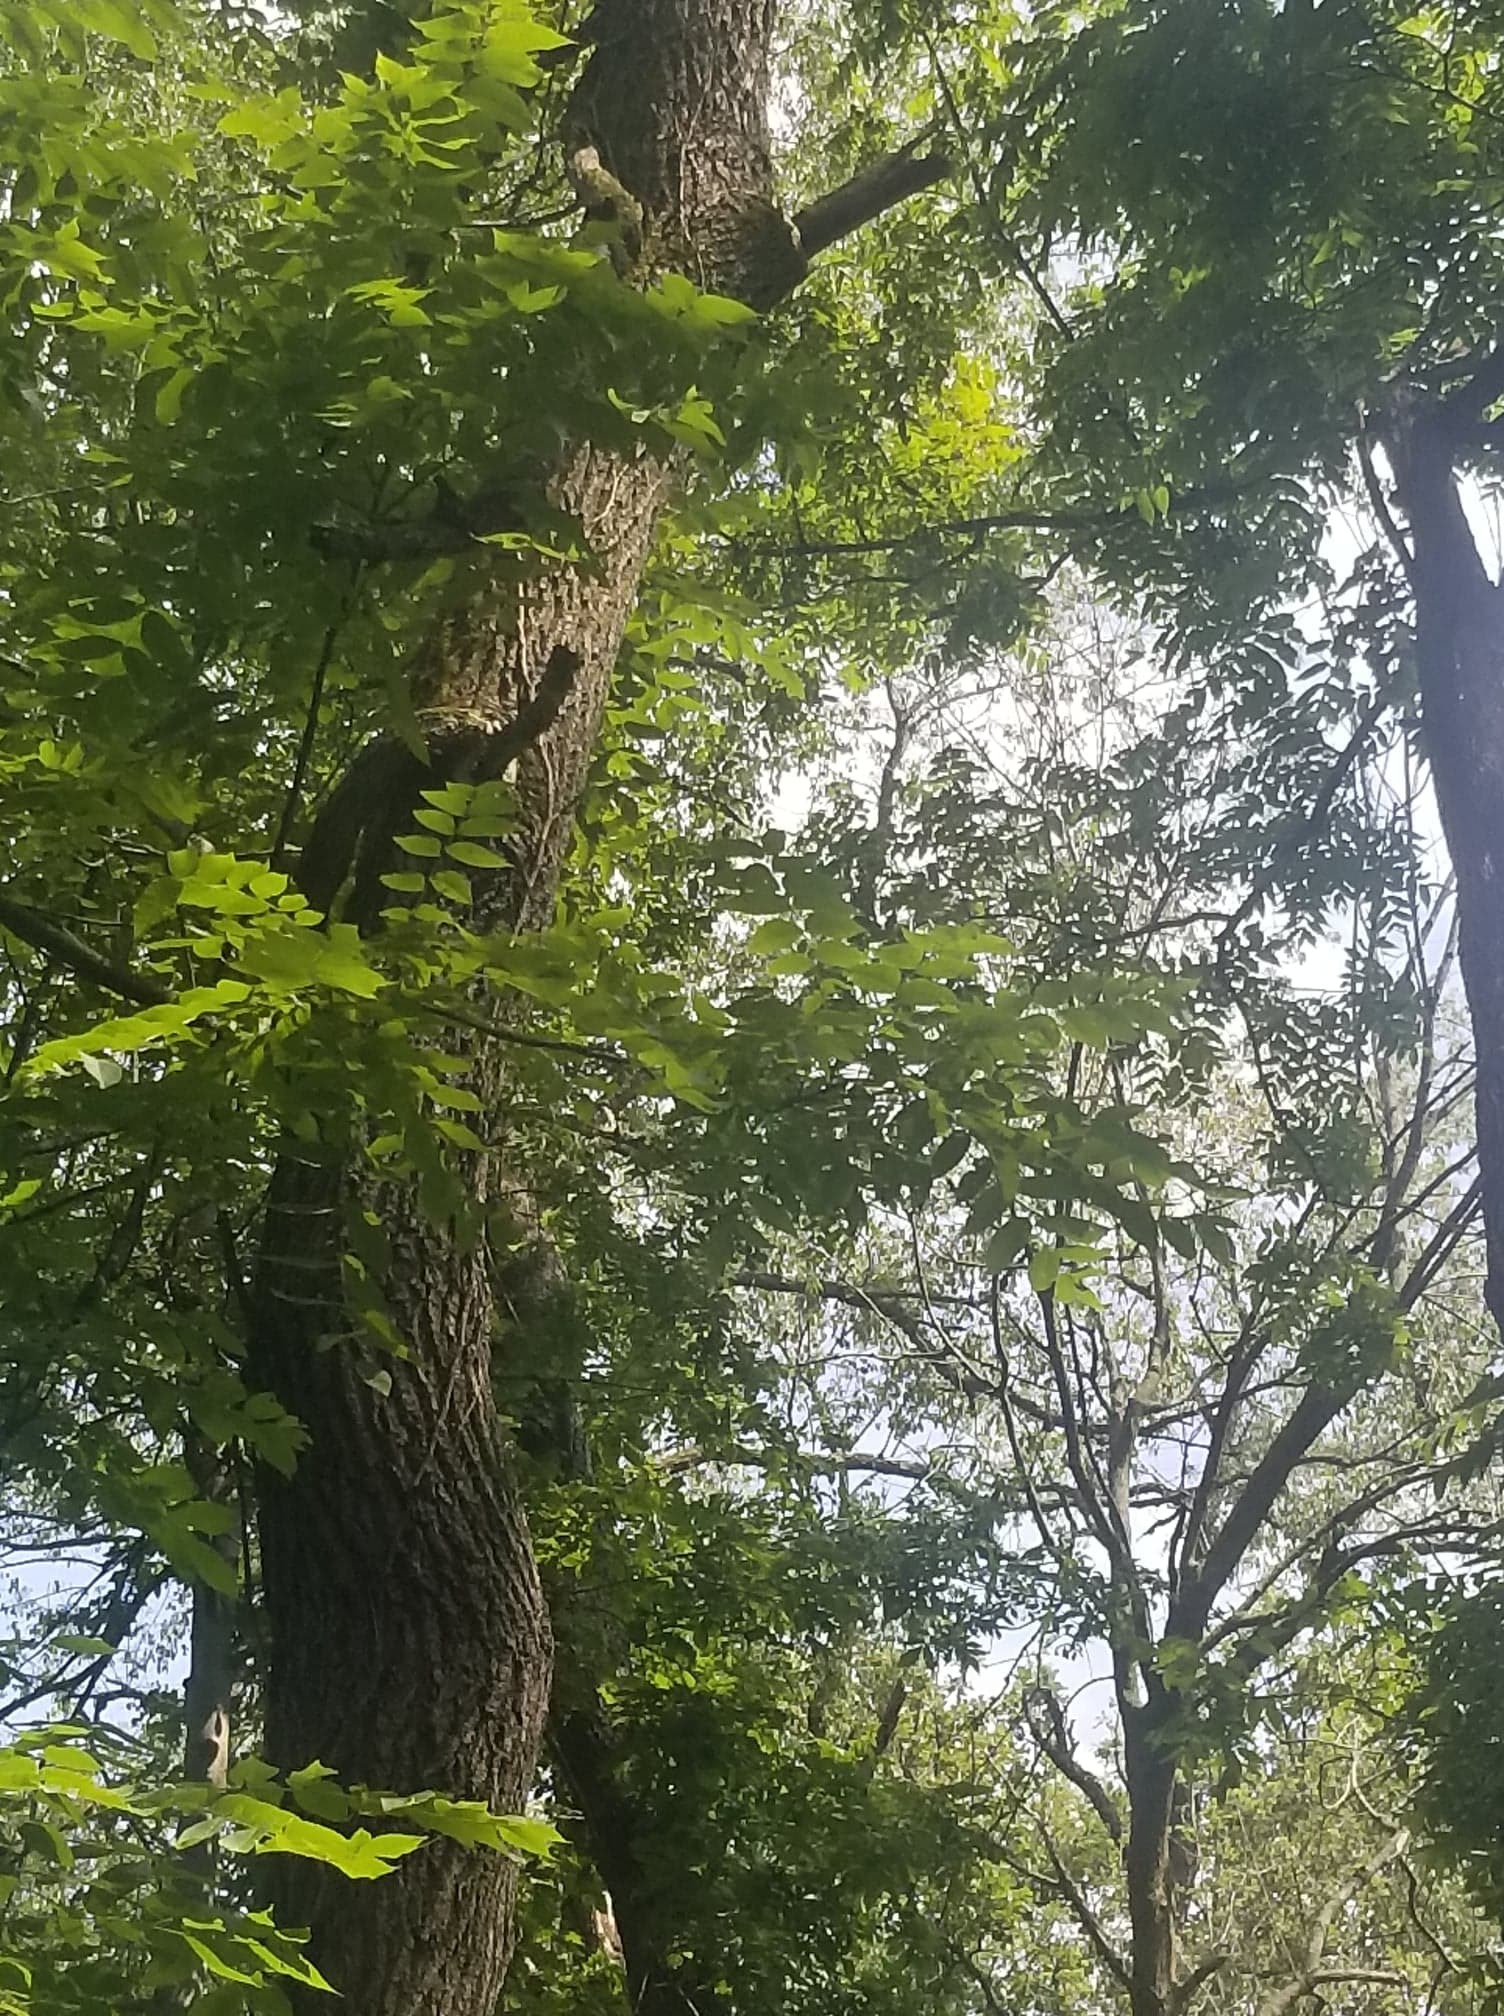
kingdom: Plantae
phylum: Tracheophyta
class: Magnoliopsida
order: Fagales
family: Juglandaceae
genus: Juglans
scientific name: Juglans nigra
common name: Black walnut
